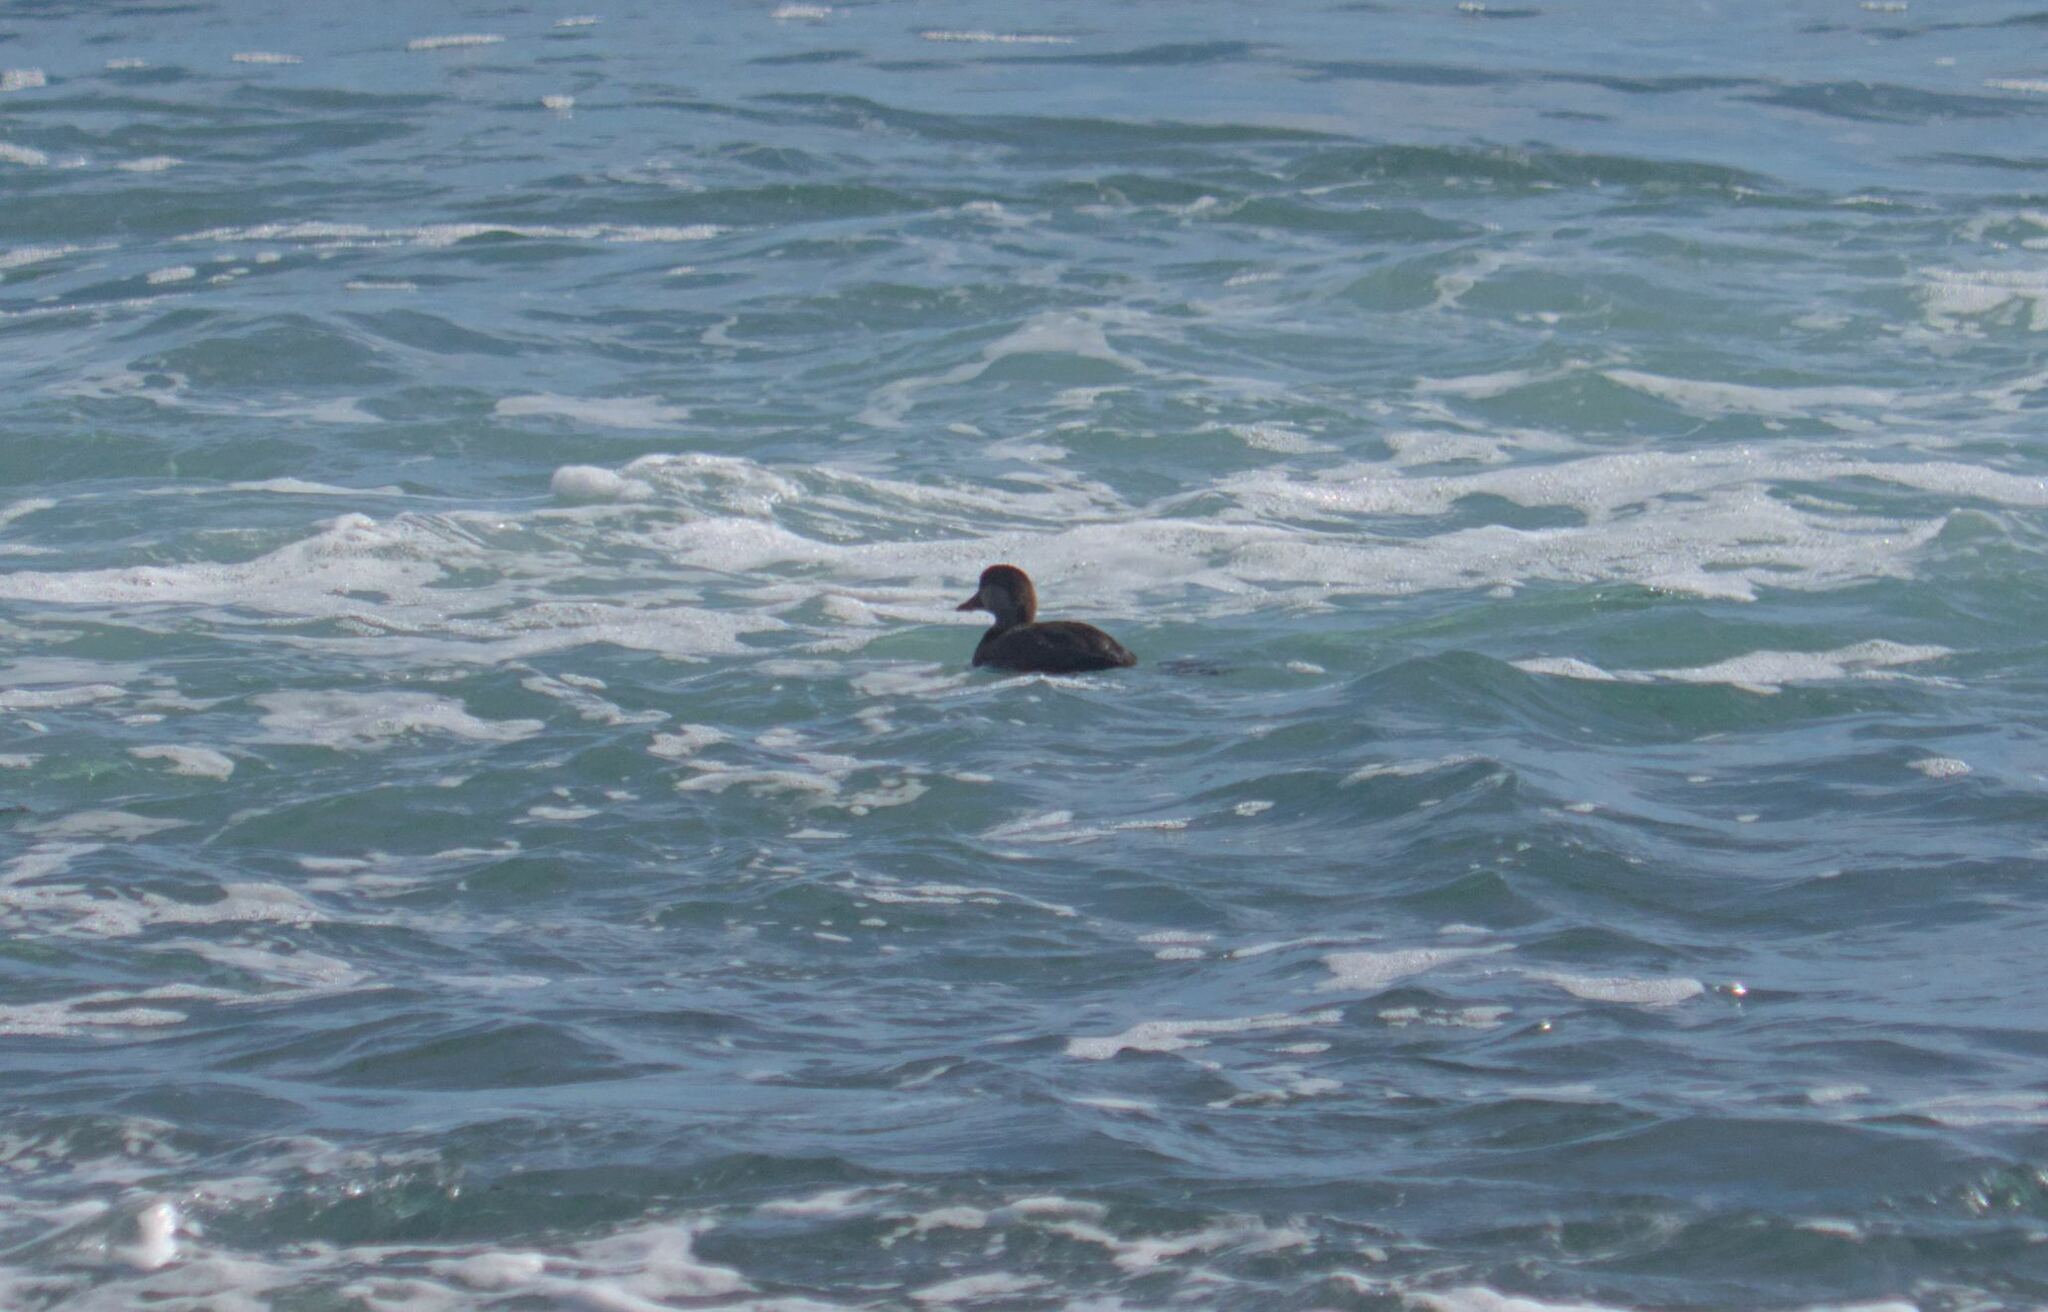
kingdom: Animalia
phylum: Chordata
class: Aves
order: Anseriformes
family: Anatidae
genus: Melanitta
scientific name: Melanitta americana
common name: Black scoter
